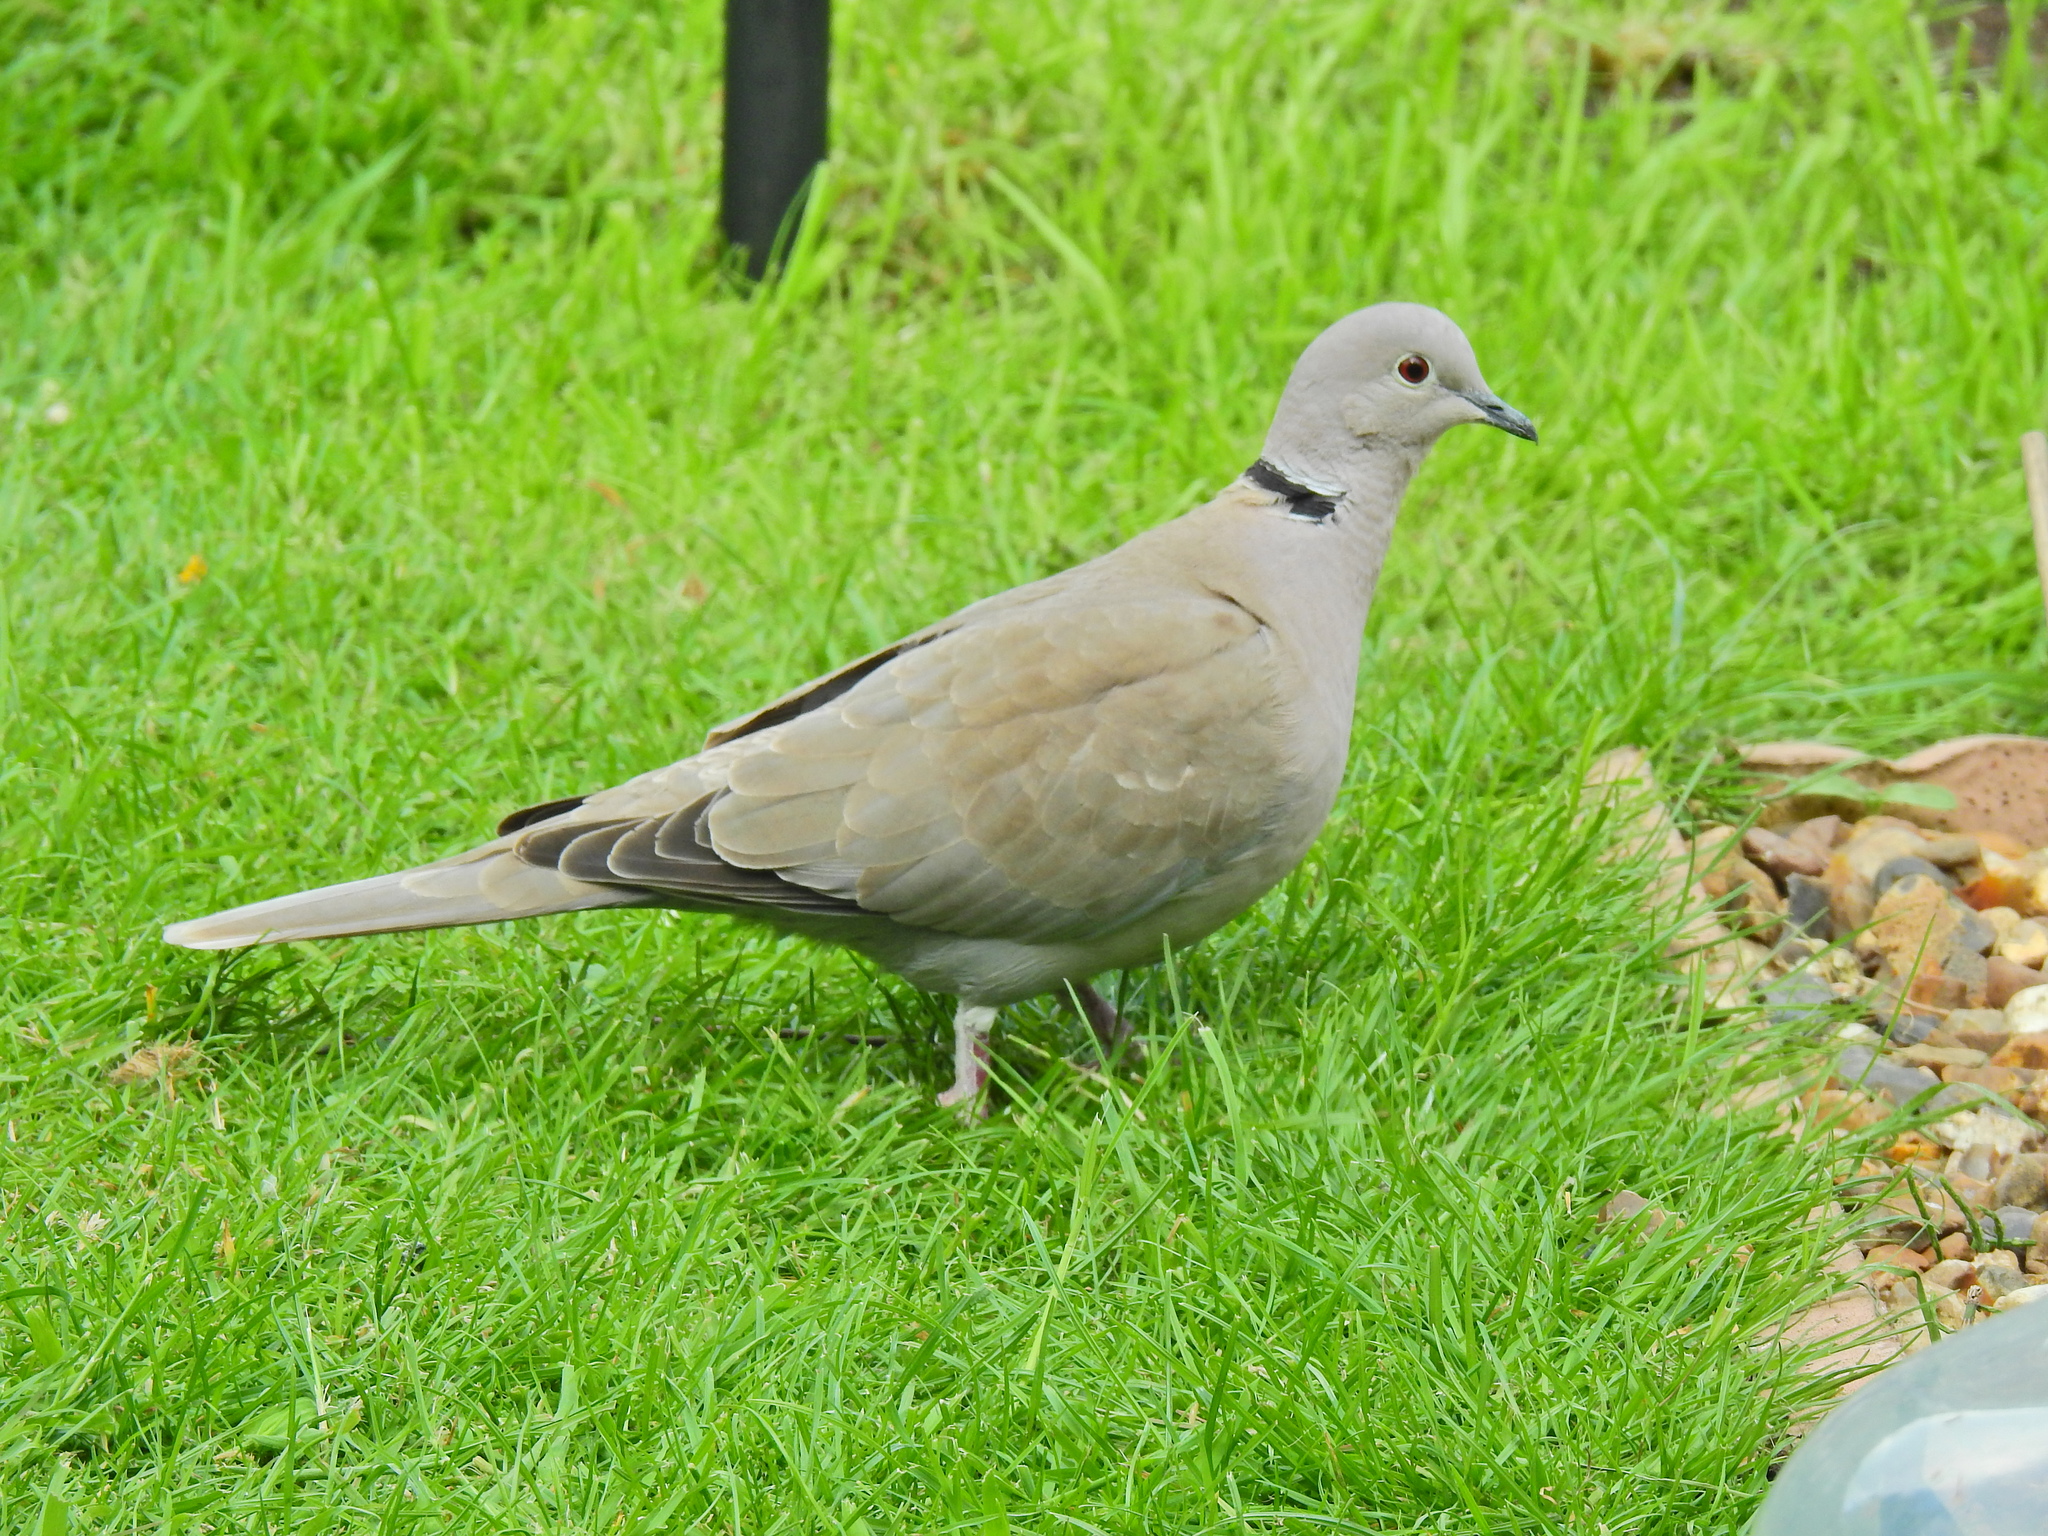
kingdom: Animalia
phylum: Chordata
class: Aves
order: Columbiformes
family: Columbidae
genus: Streptopelia
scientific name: Streptopelia decaocto
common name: Eurasian collared dove
